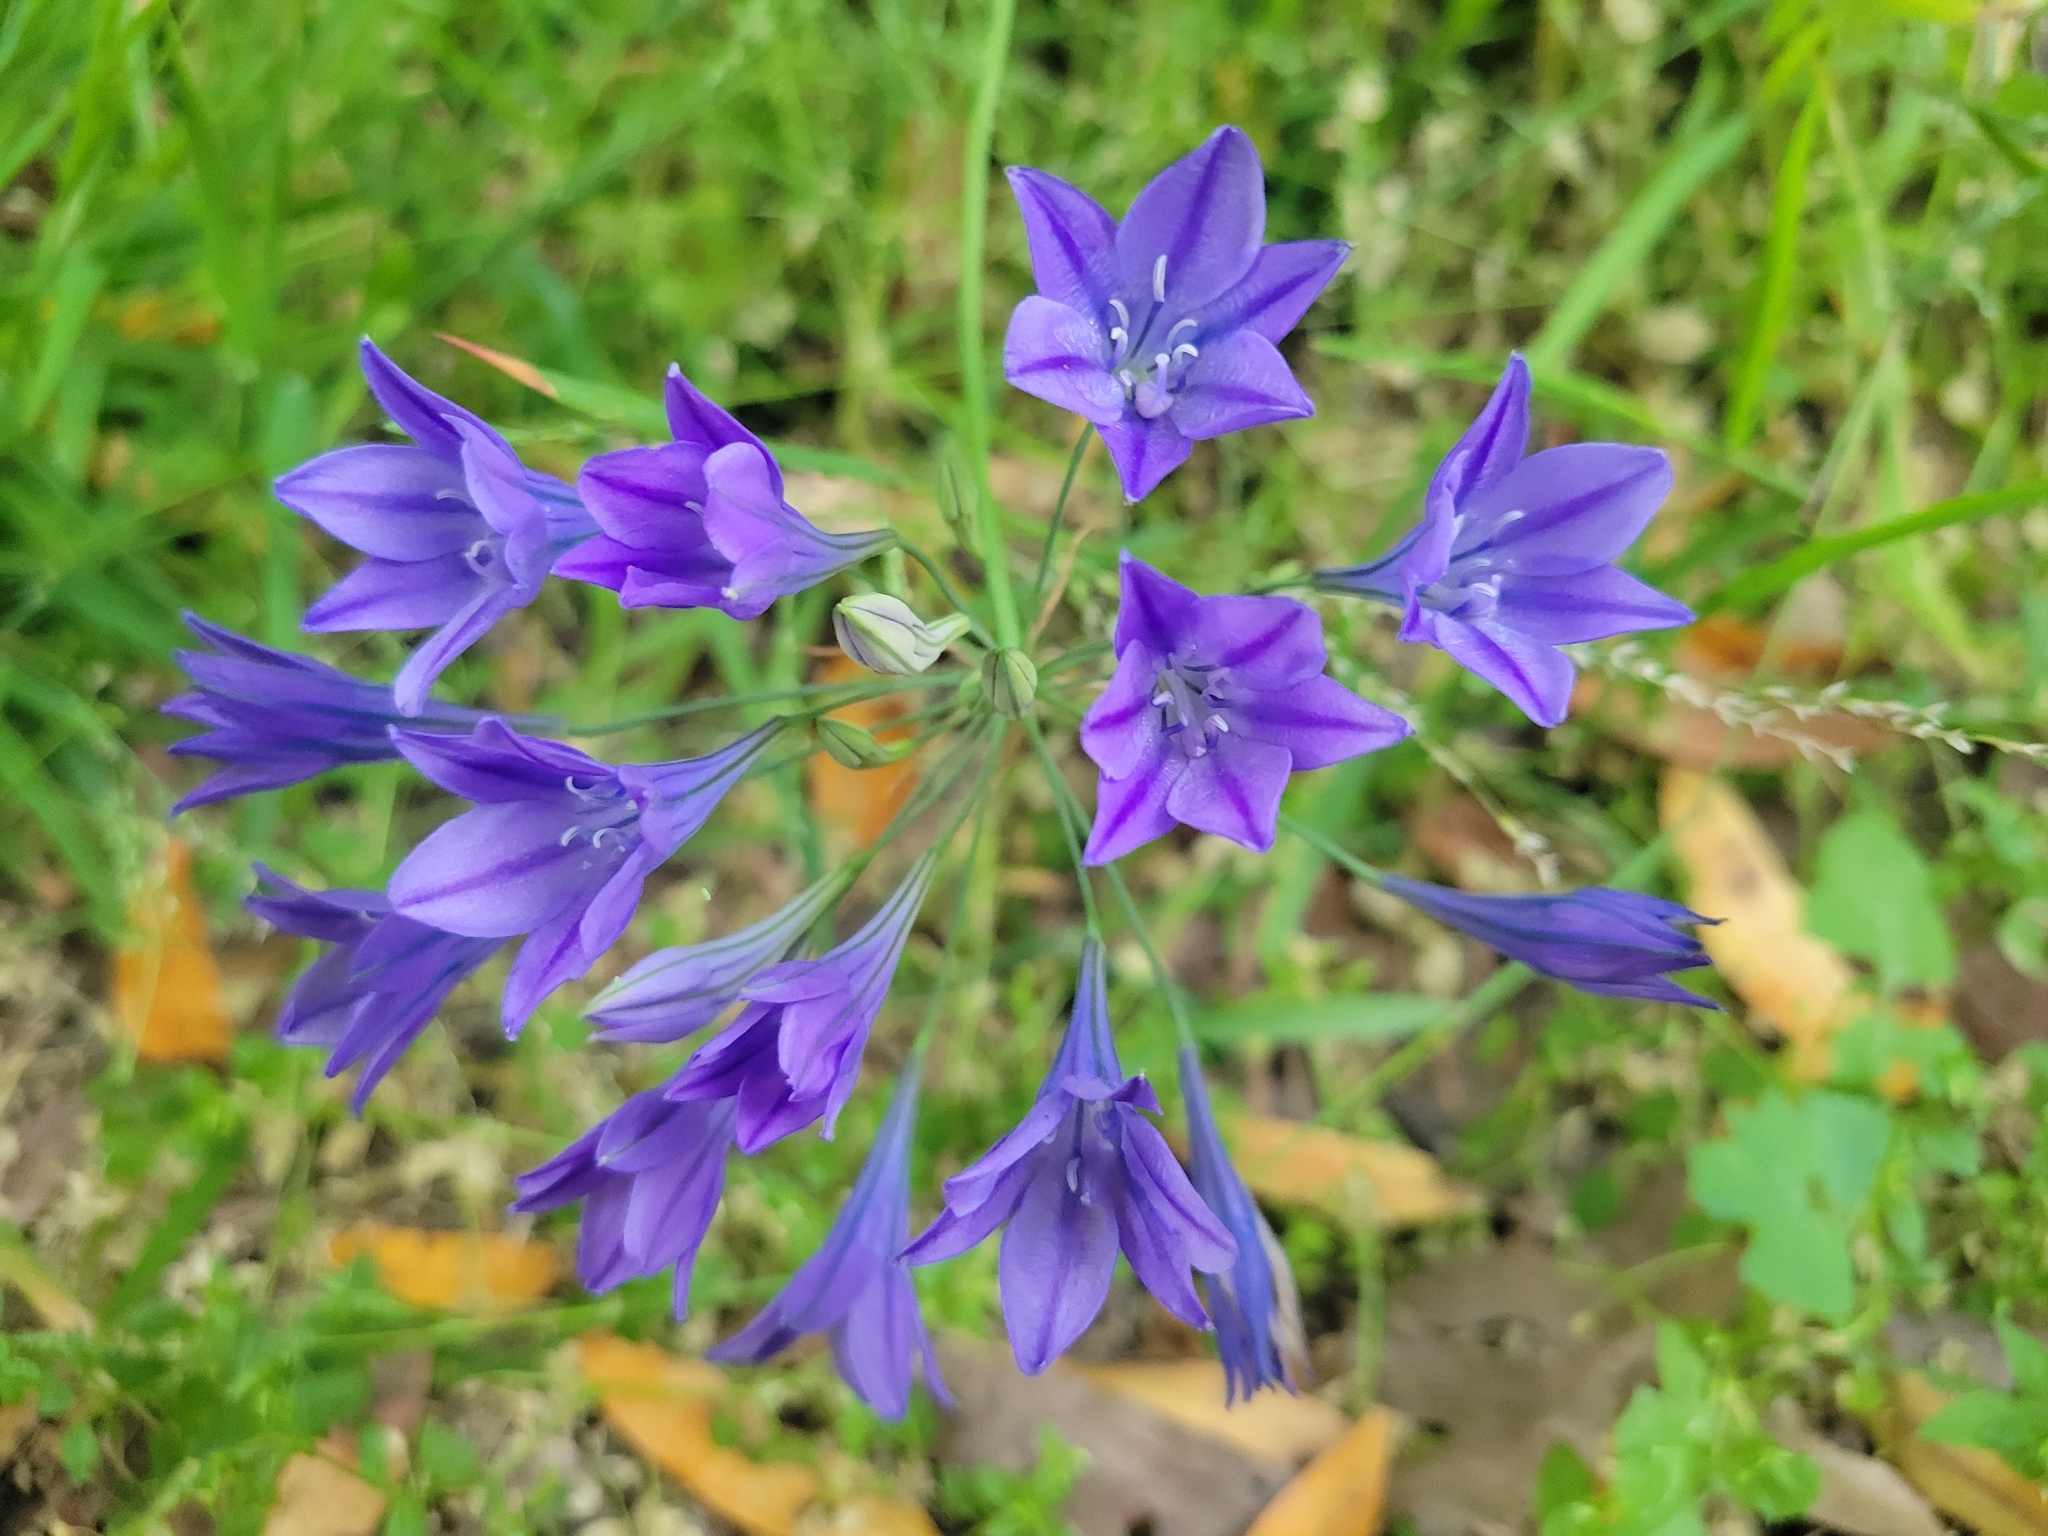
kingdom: Plantae
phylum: Tracheophyta
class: Liliopsida
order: Asparagales
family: Asparagaceae
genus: Triteleia
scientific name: Triteleia laxa
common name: Triplet-lily
